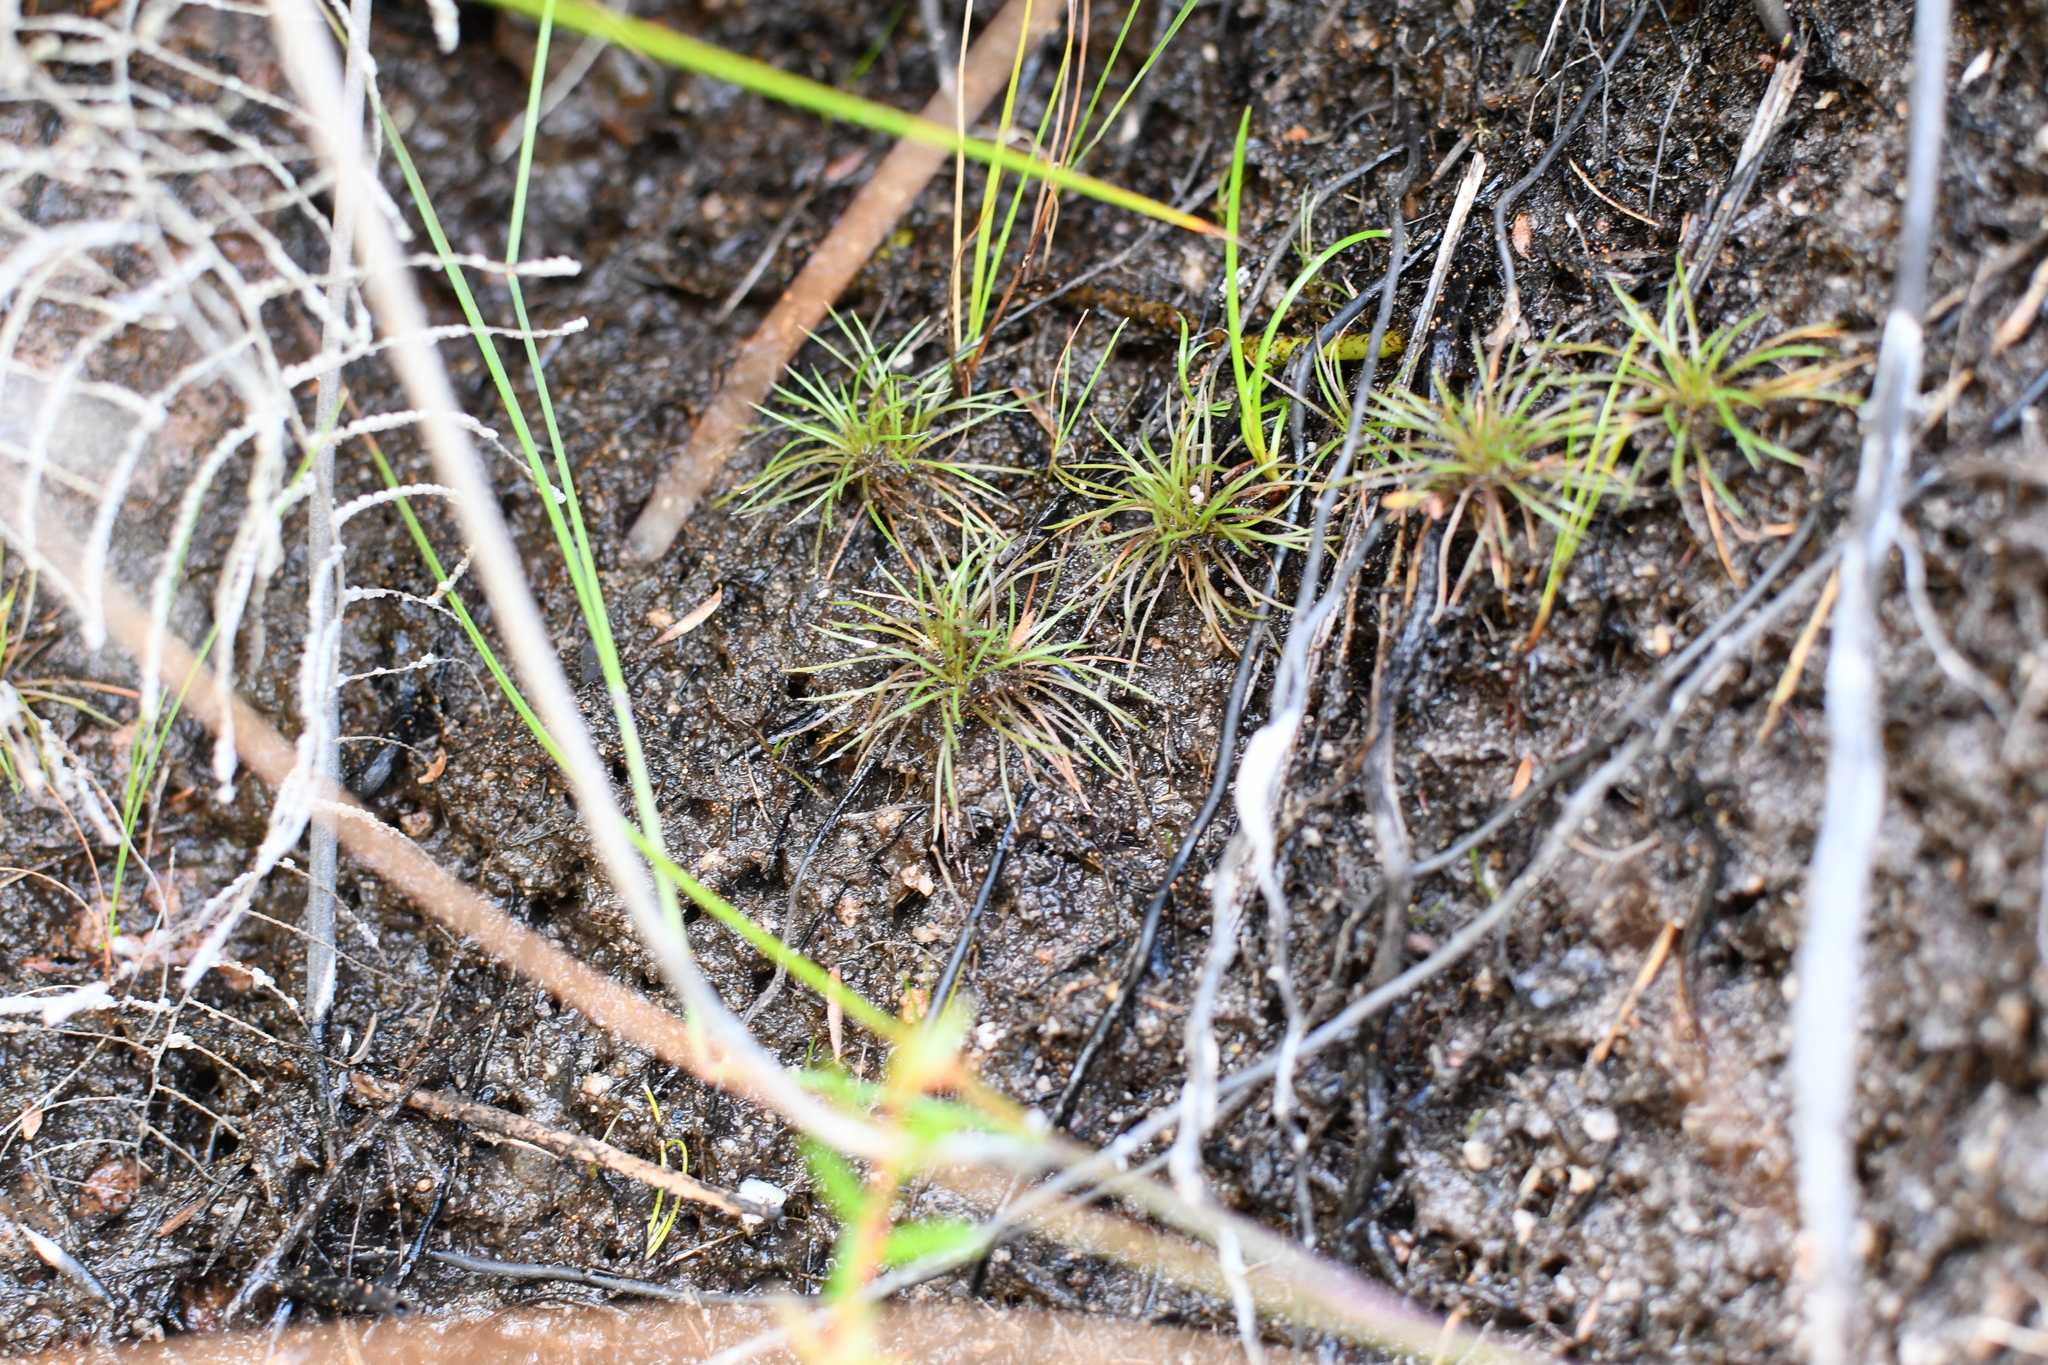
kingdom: Plantae
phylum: Tracheophyta
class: Liliopsida
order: Poales
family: Restionaceae
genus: Centrolepis
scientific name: Centrolepis strigosa
